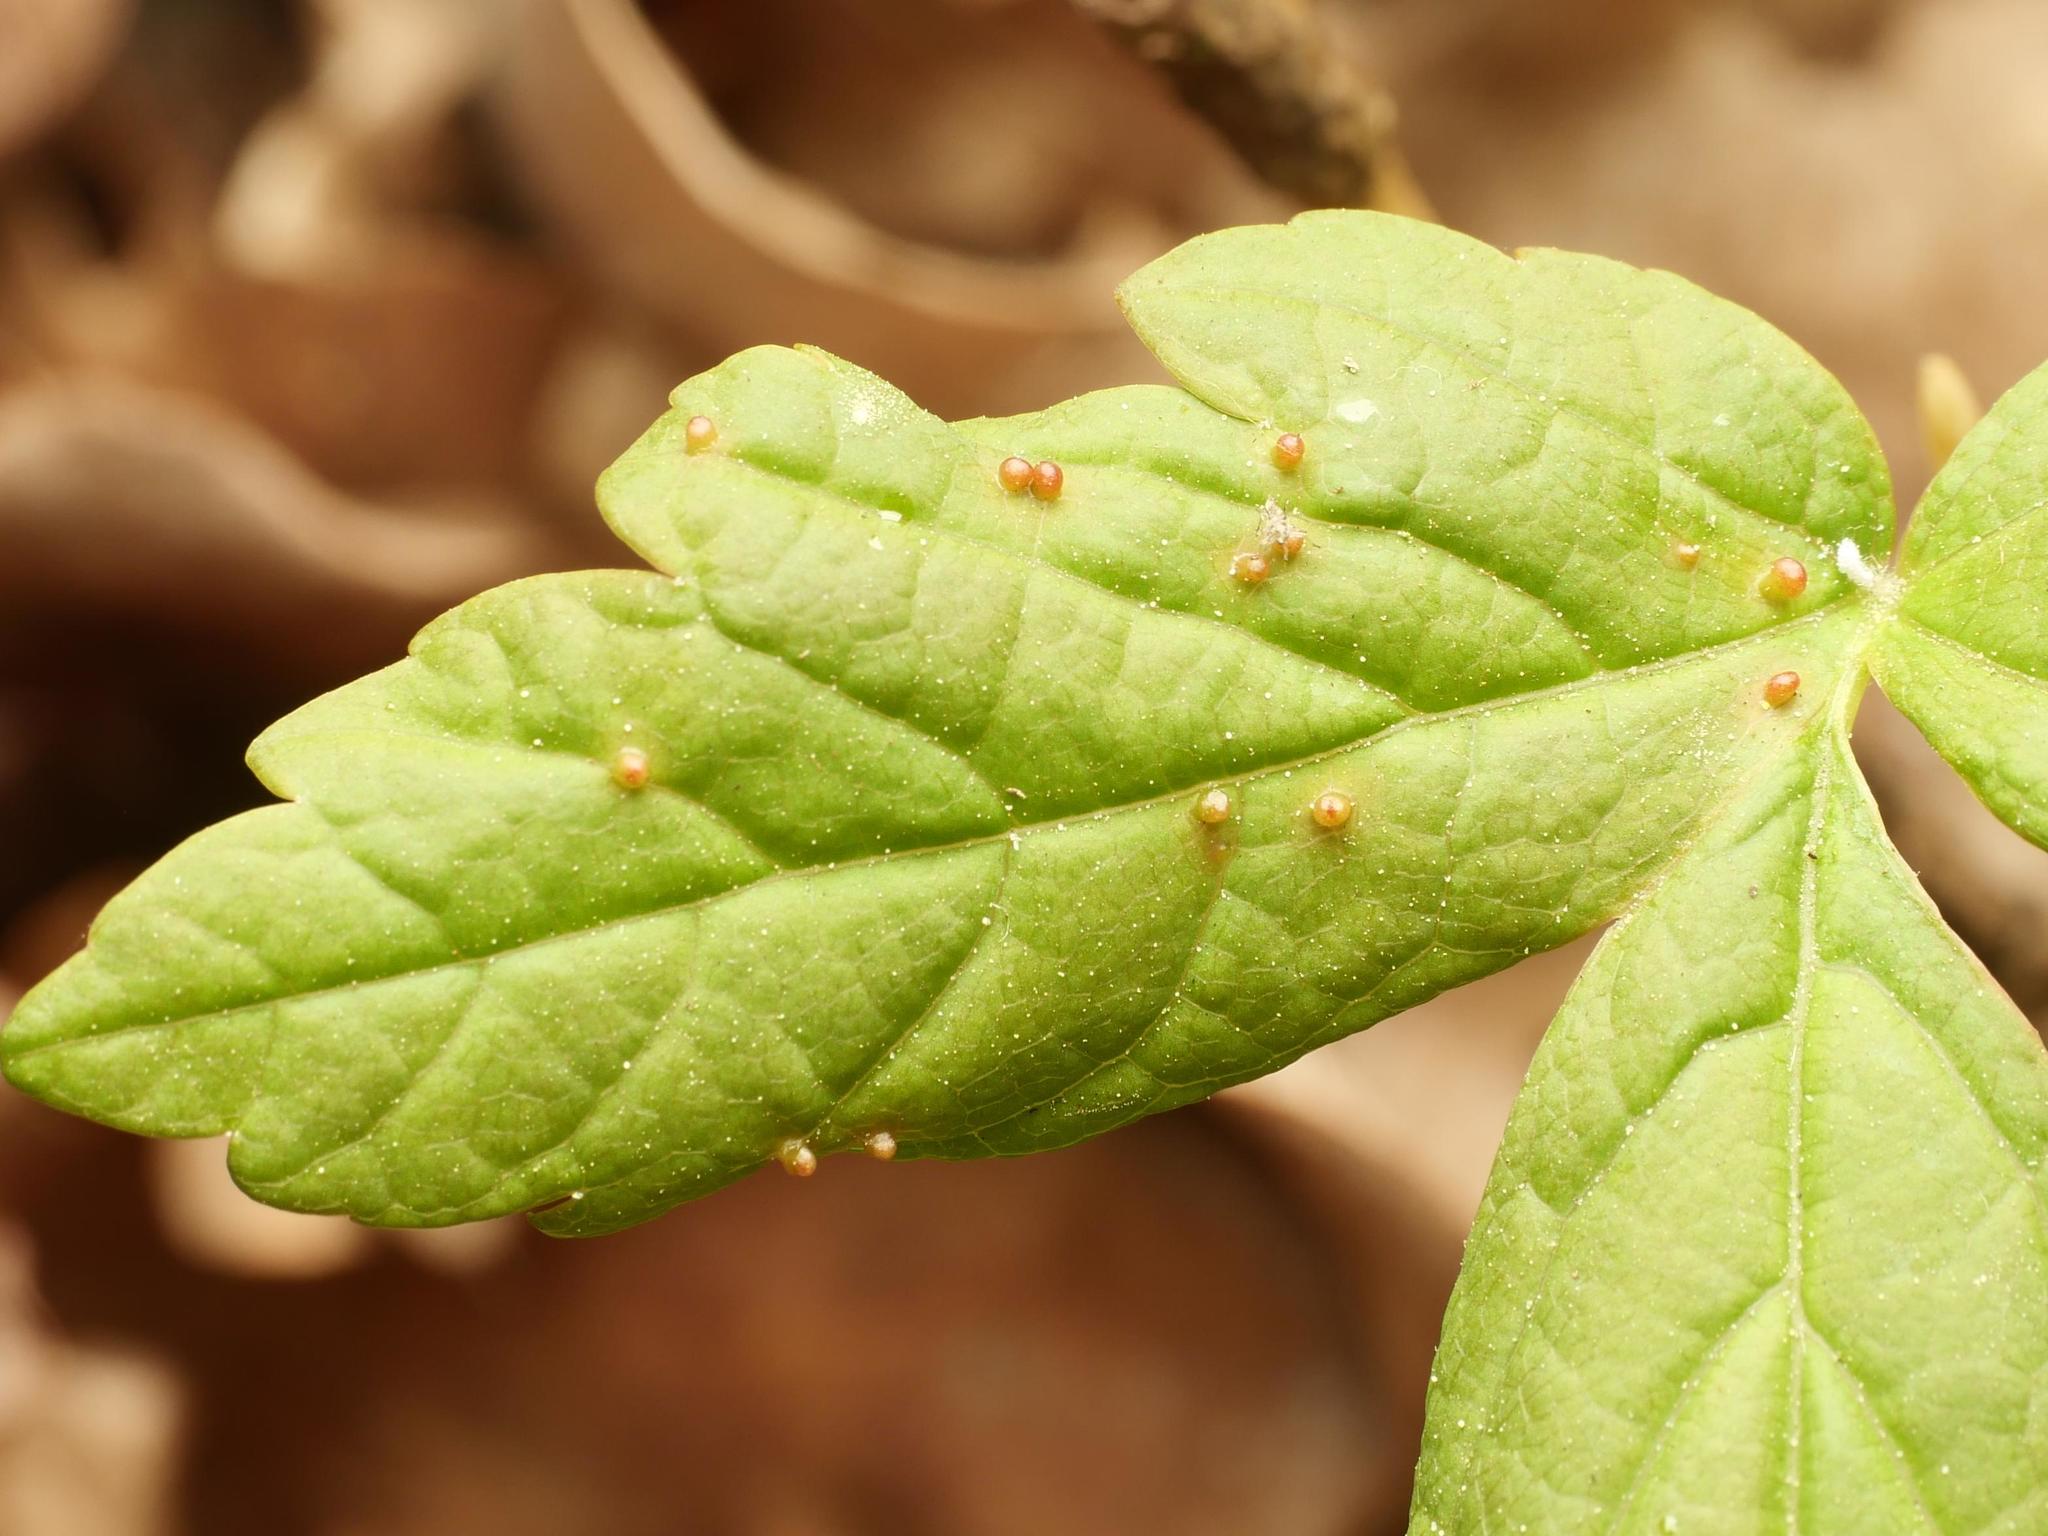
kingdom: Plantae
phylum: Tracheophyta
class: Magnoliopsida
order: Sapindales
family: Sapindaceae
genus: Acer
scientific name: Acer pseudoplatanus
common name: Sycamore
